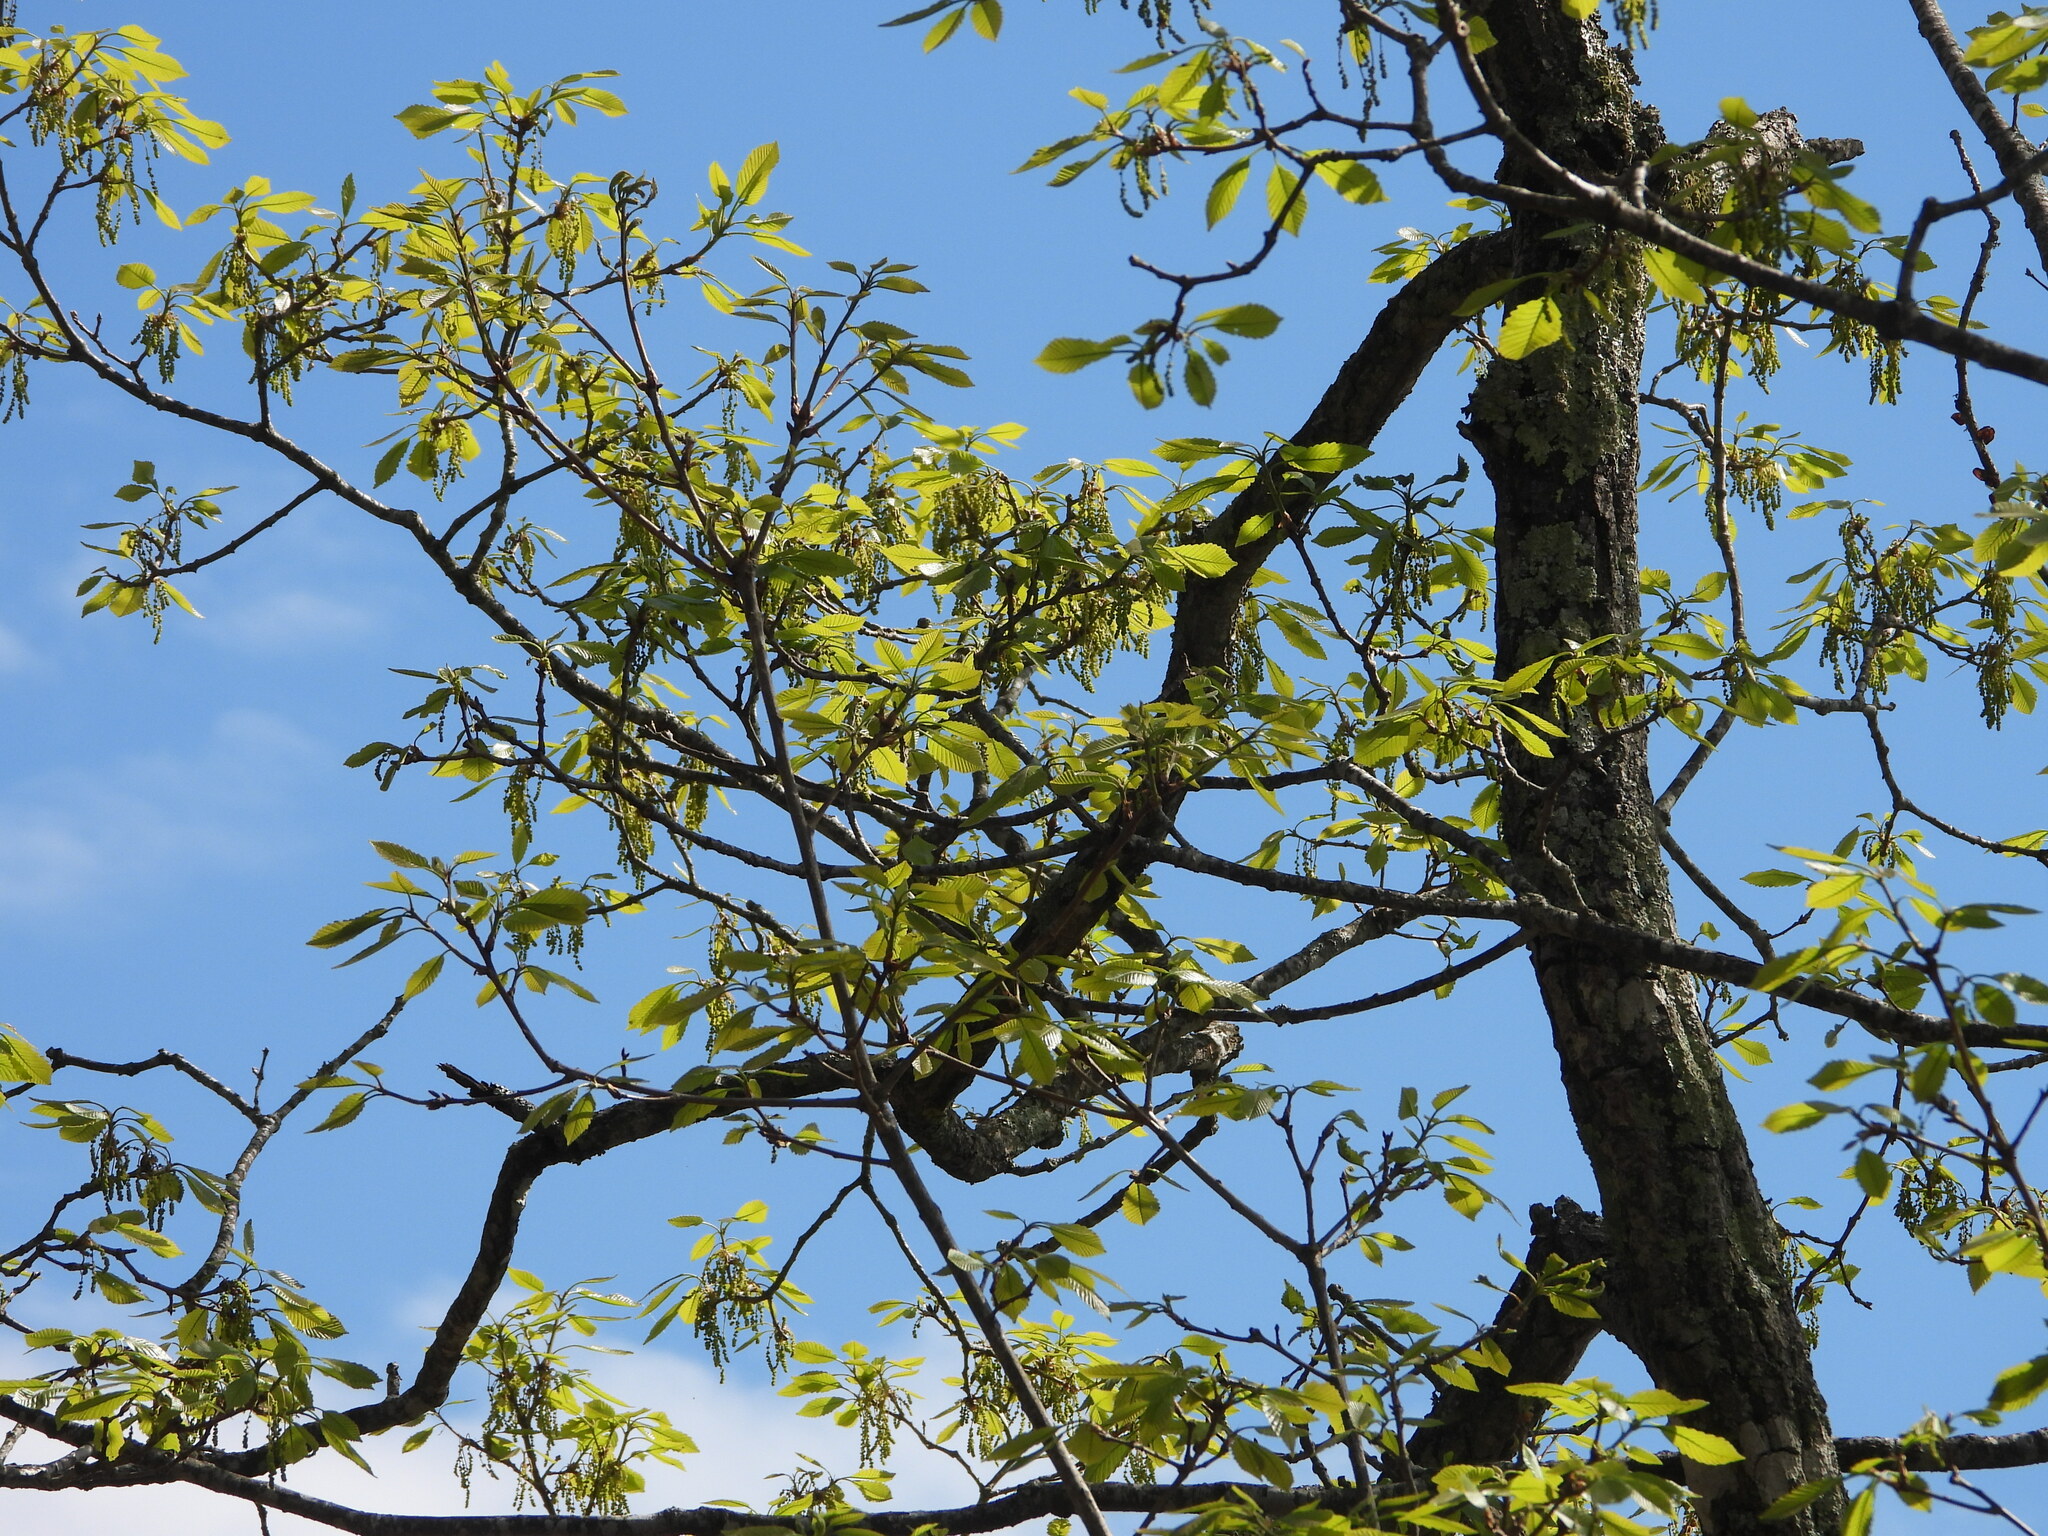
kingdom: Plantae
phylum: Tracheophyta
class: Magnoliopsida
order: Fagales
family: Fagaceae
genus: Quercus
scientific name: Quercus montana
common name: Chestnut oak
